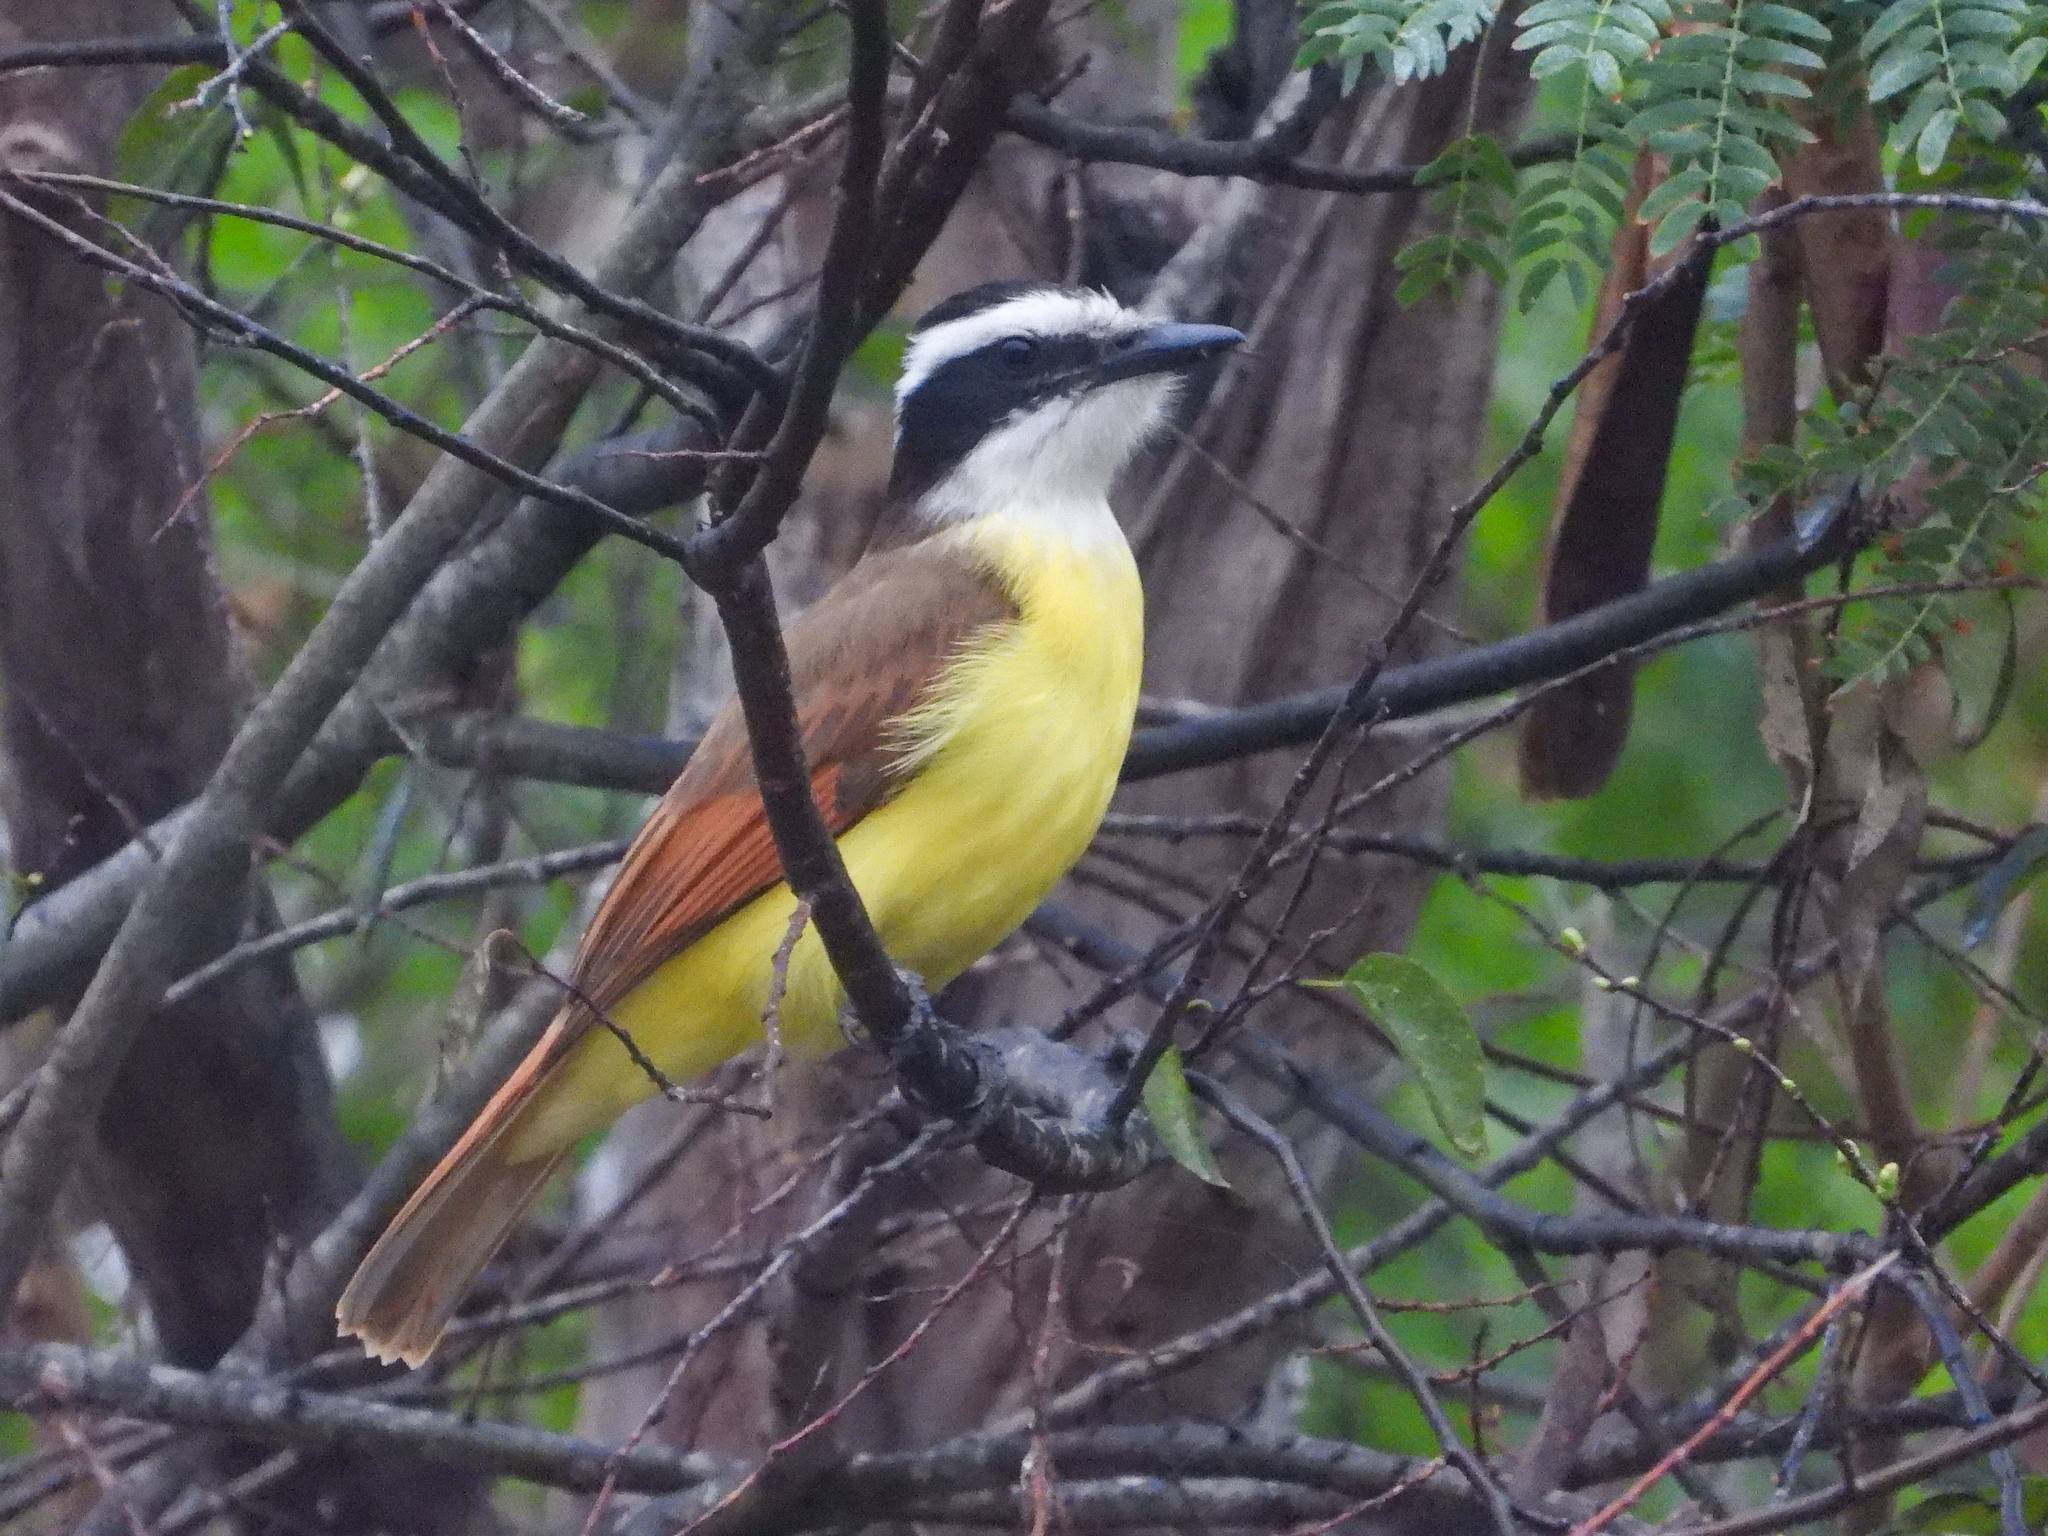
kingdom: Animalia
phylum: Chordata
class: Aves
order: Passeriformes
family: Tyrannidae
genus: Pitangus
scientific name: Pitangus sulphuratus
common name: Great kiskadee
